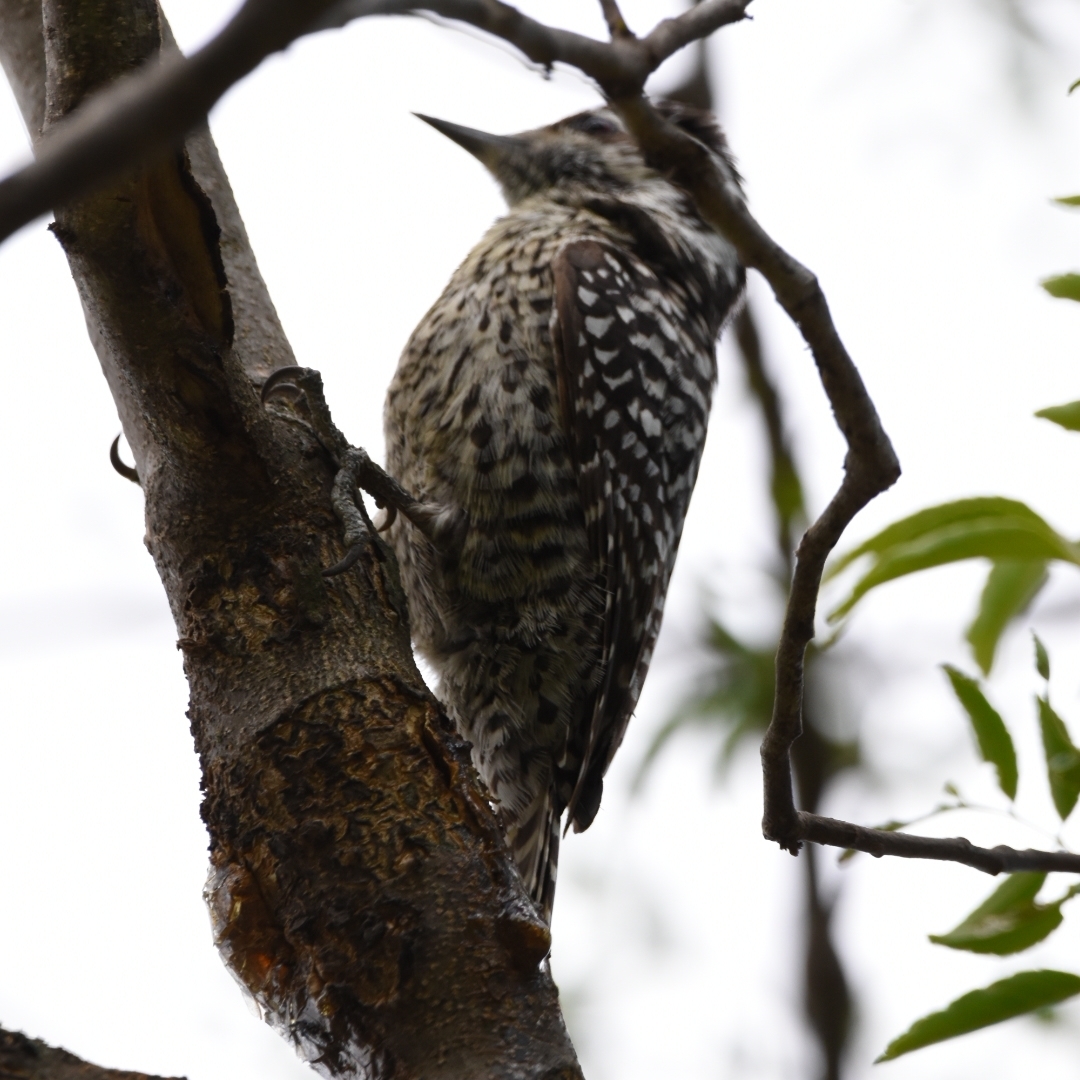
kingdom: Animalia
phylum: Chordata
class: Aves
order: Piciformes
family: Picidae
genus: Veniliornis
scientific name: Veniliornis mixtus
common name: Checkered woodpecker
